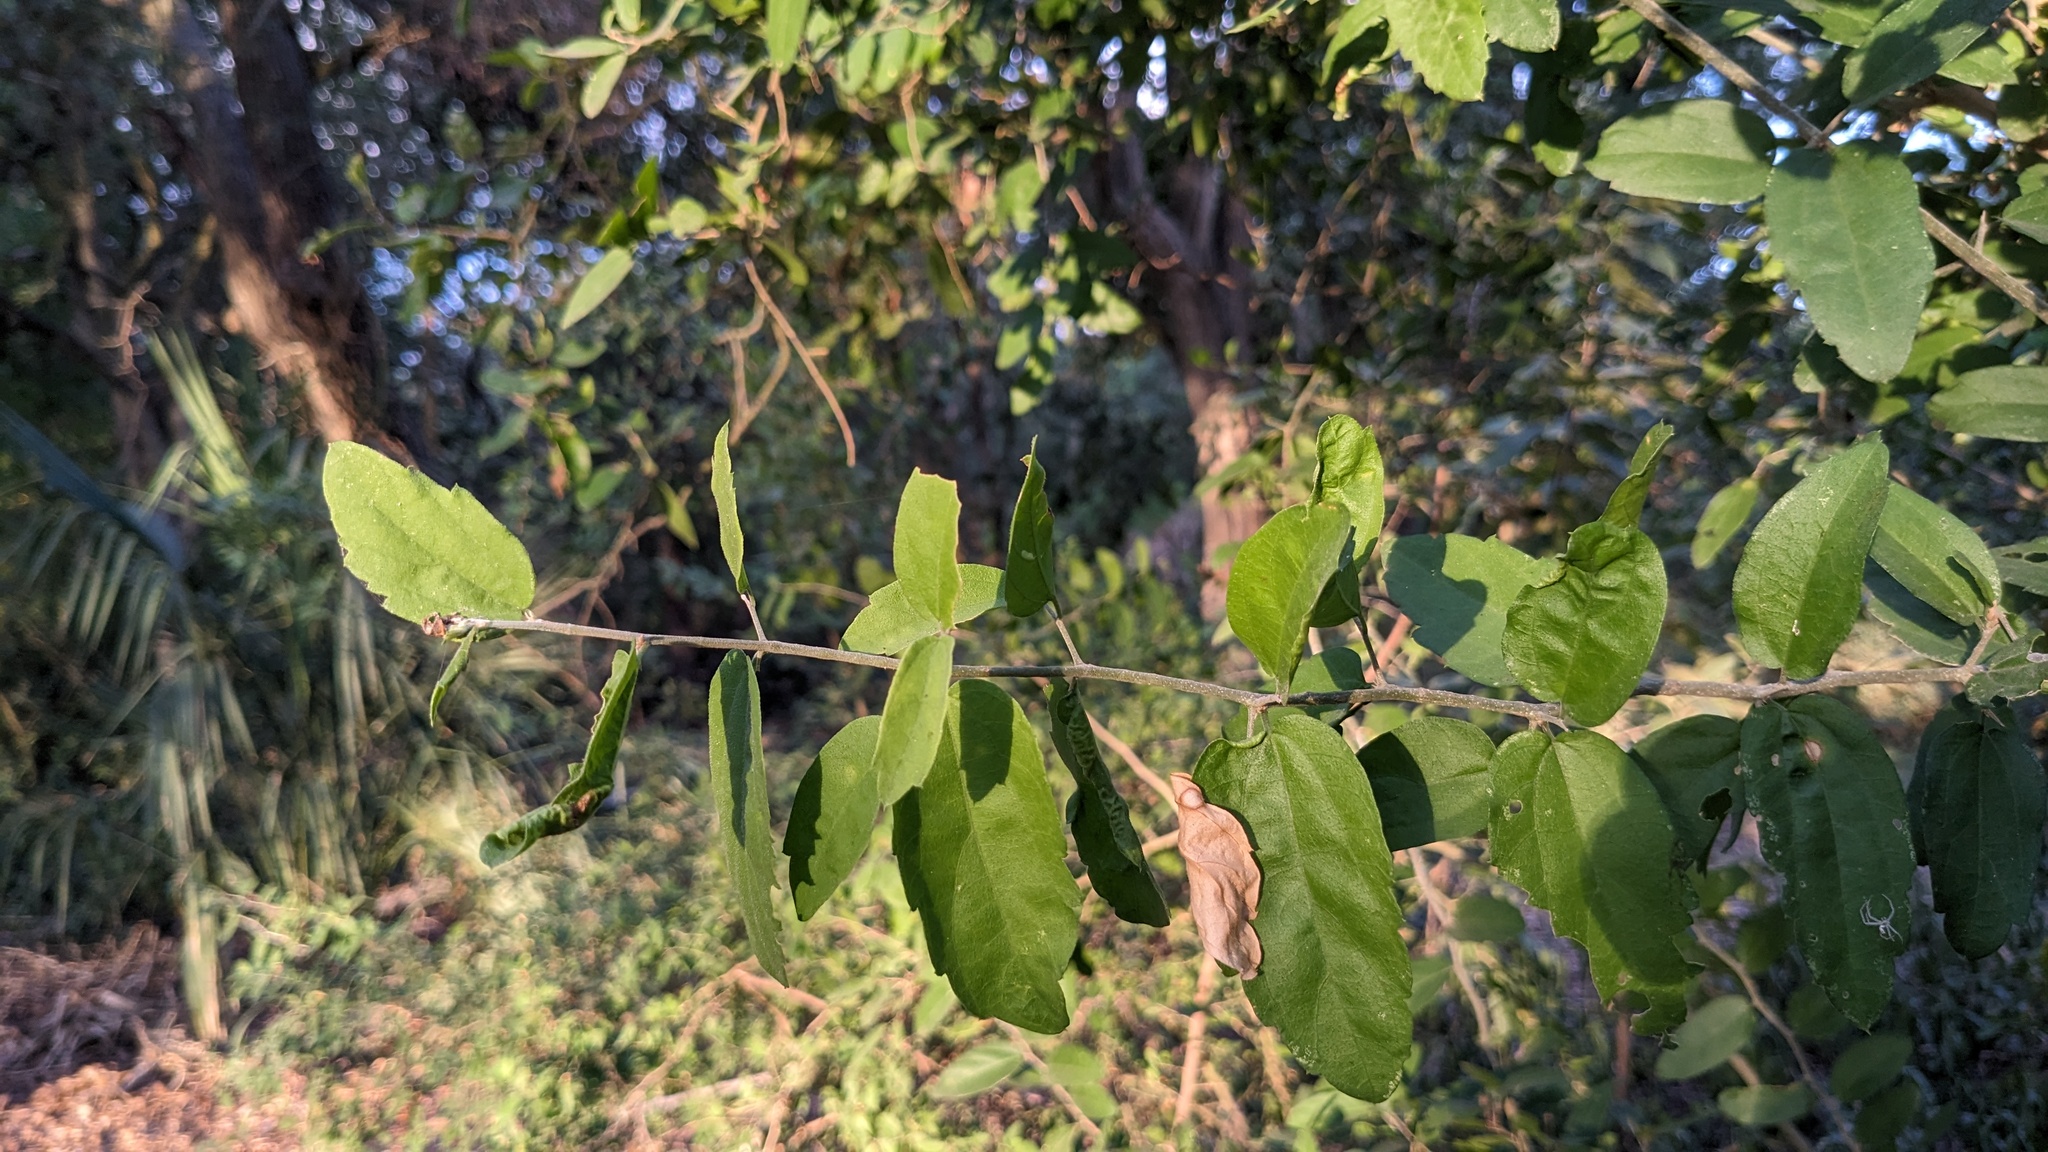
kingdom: Plantae
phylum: Tracheophyta
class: Magnoliopsida
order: Rosales
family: Cannabaceae
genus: Celtis
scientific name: Celtis pallida
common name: Desert hackberry
